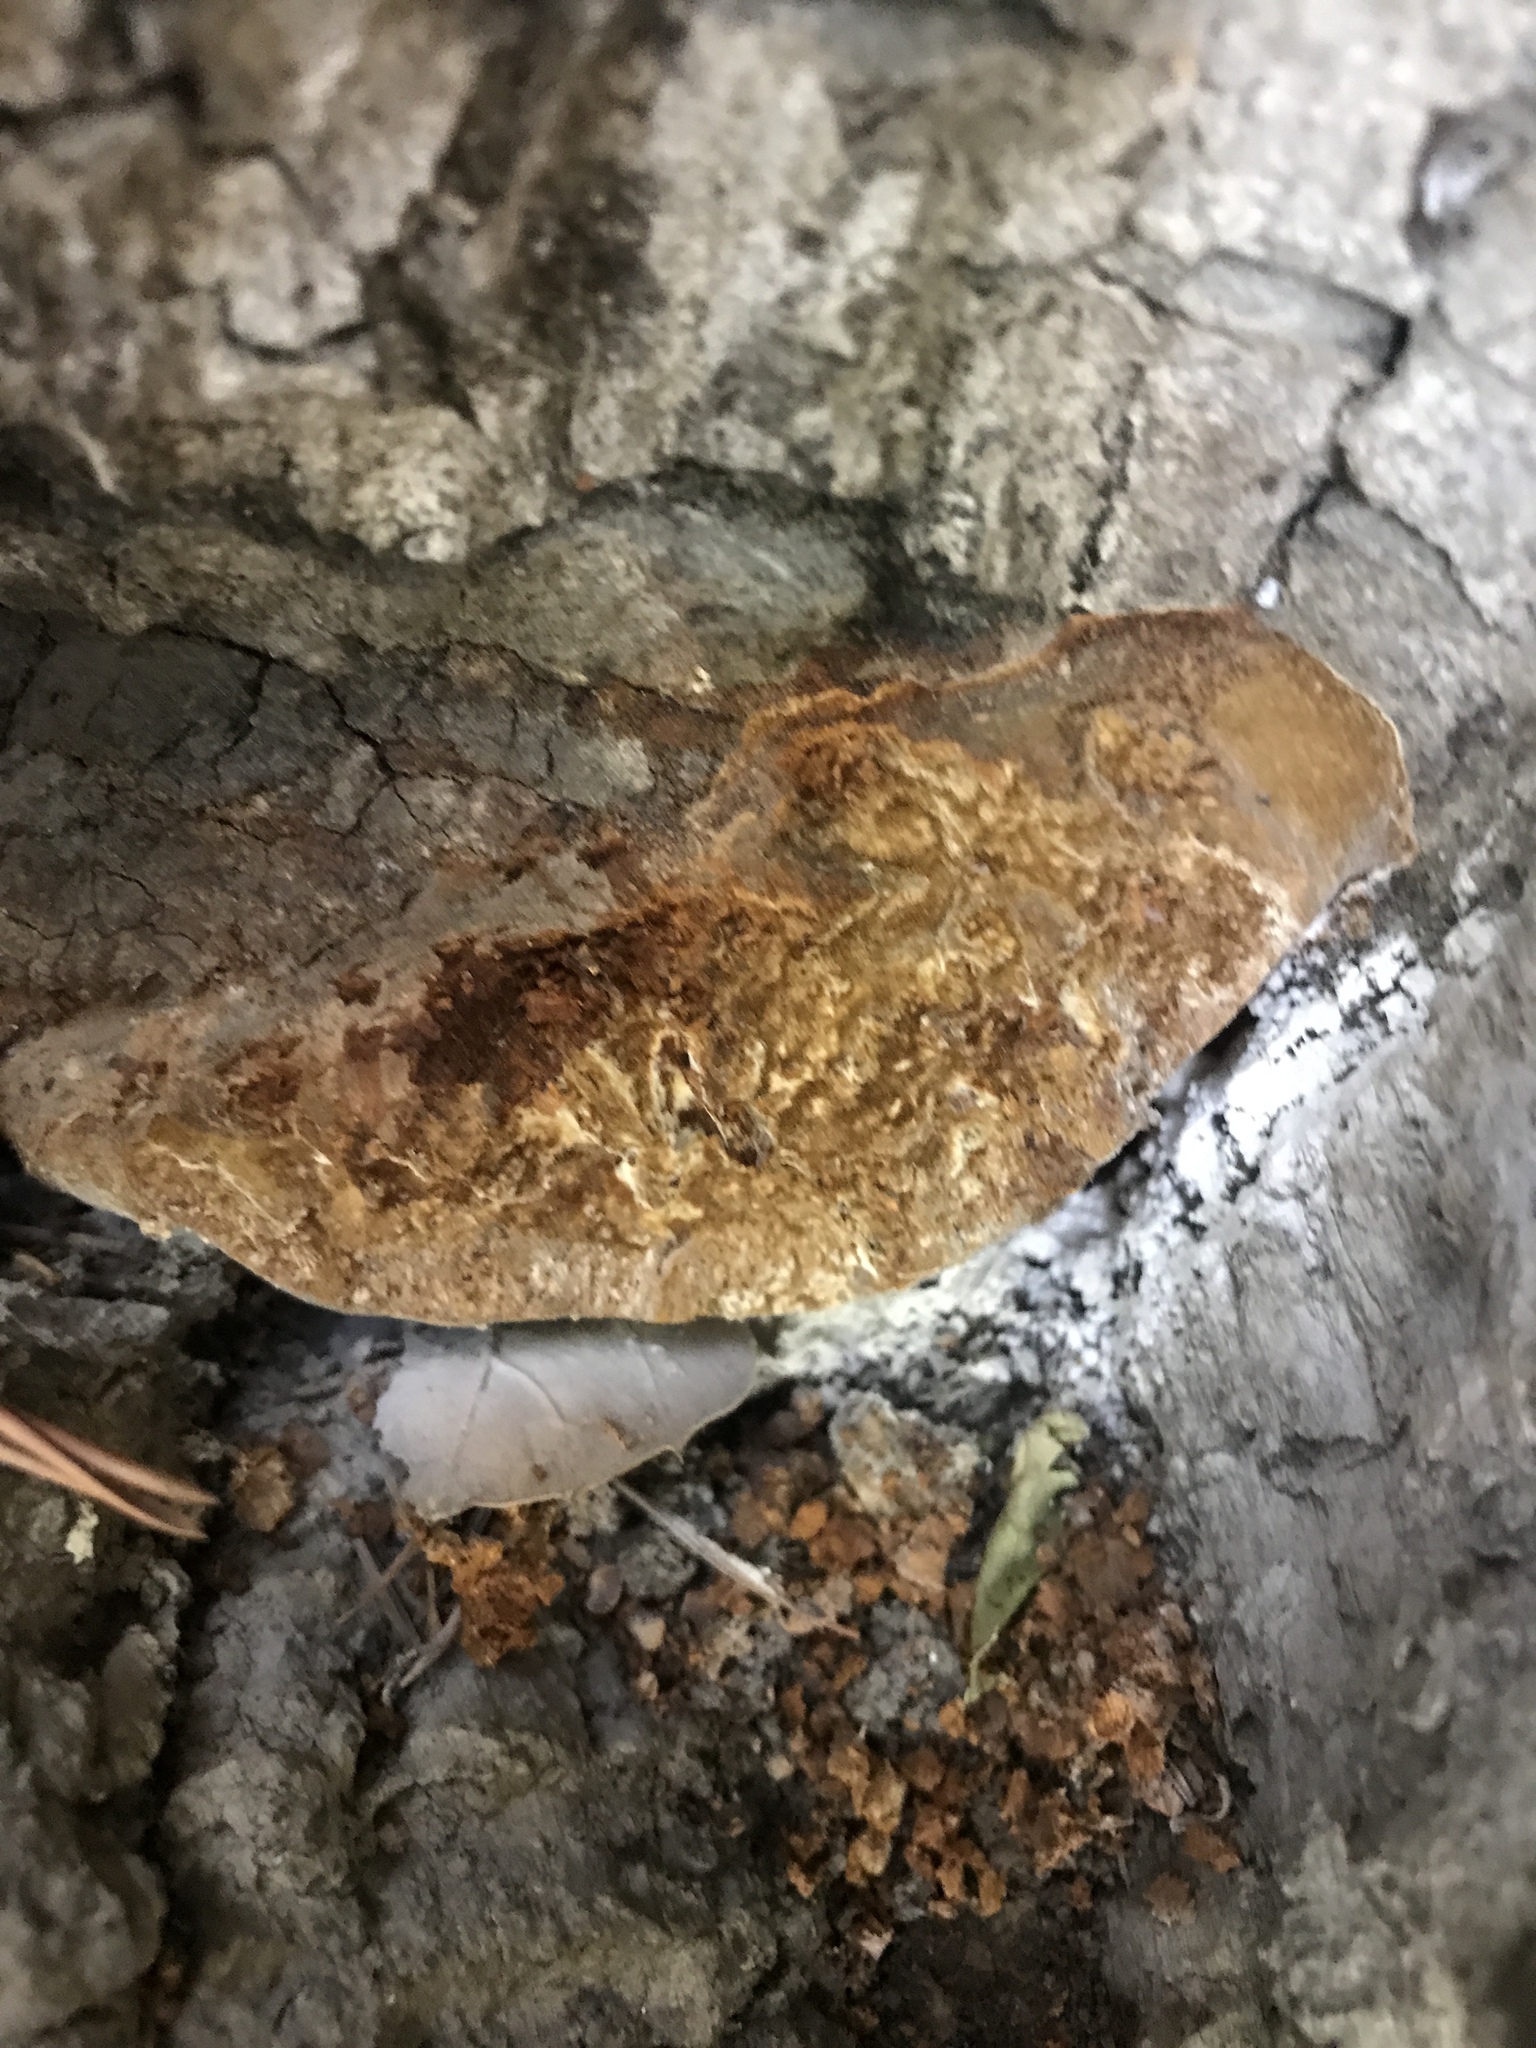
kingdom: Fungi
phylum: Basidiomycota
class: Agaricomycetes
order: Hymenochaetales
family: Hymenochaetaceae
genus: Phellinus
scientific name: Phellinus gilvus
